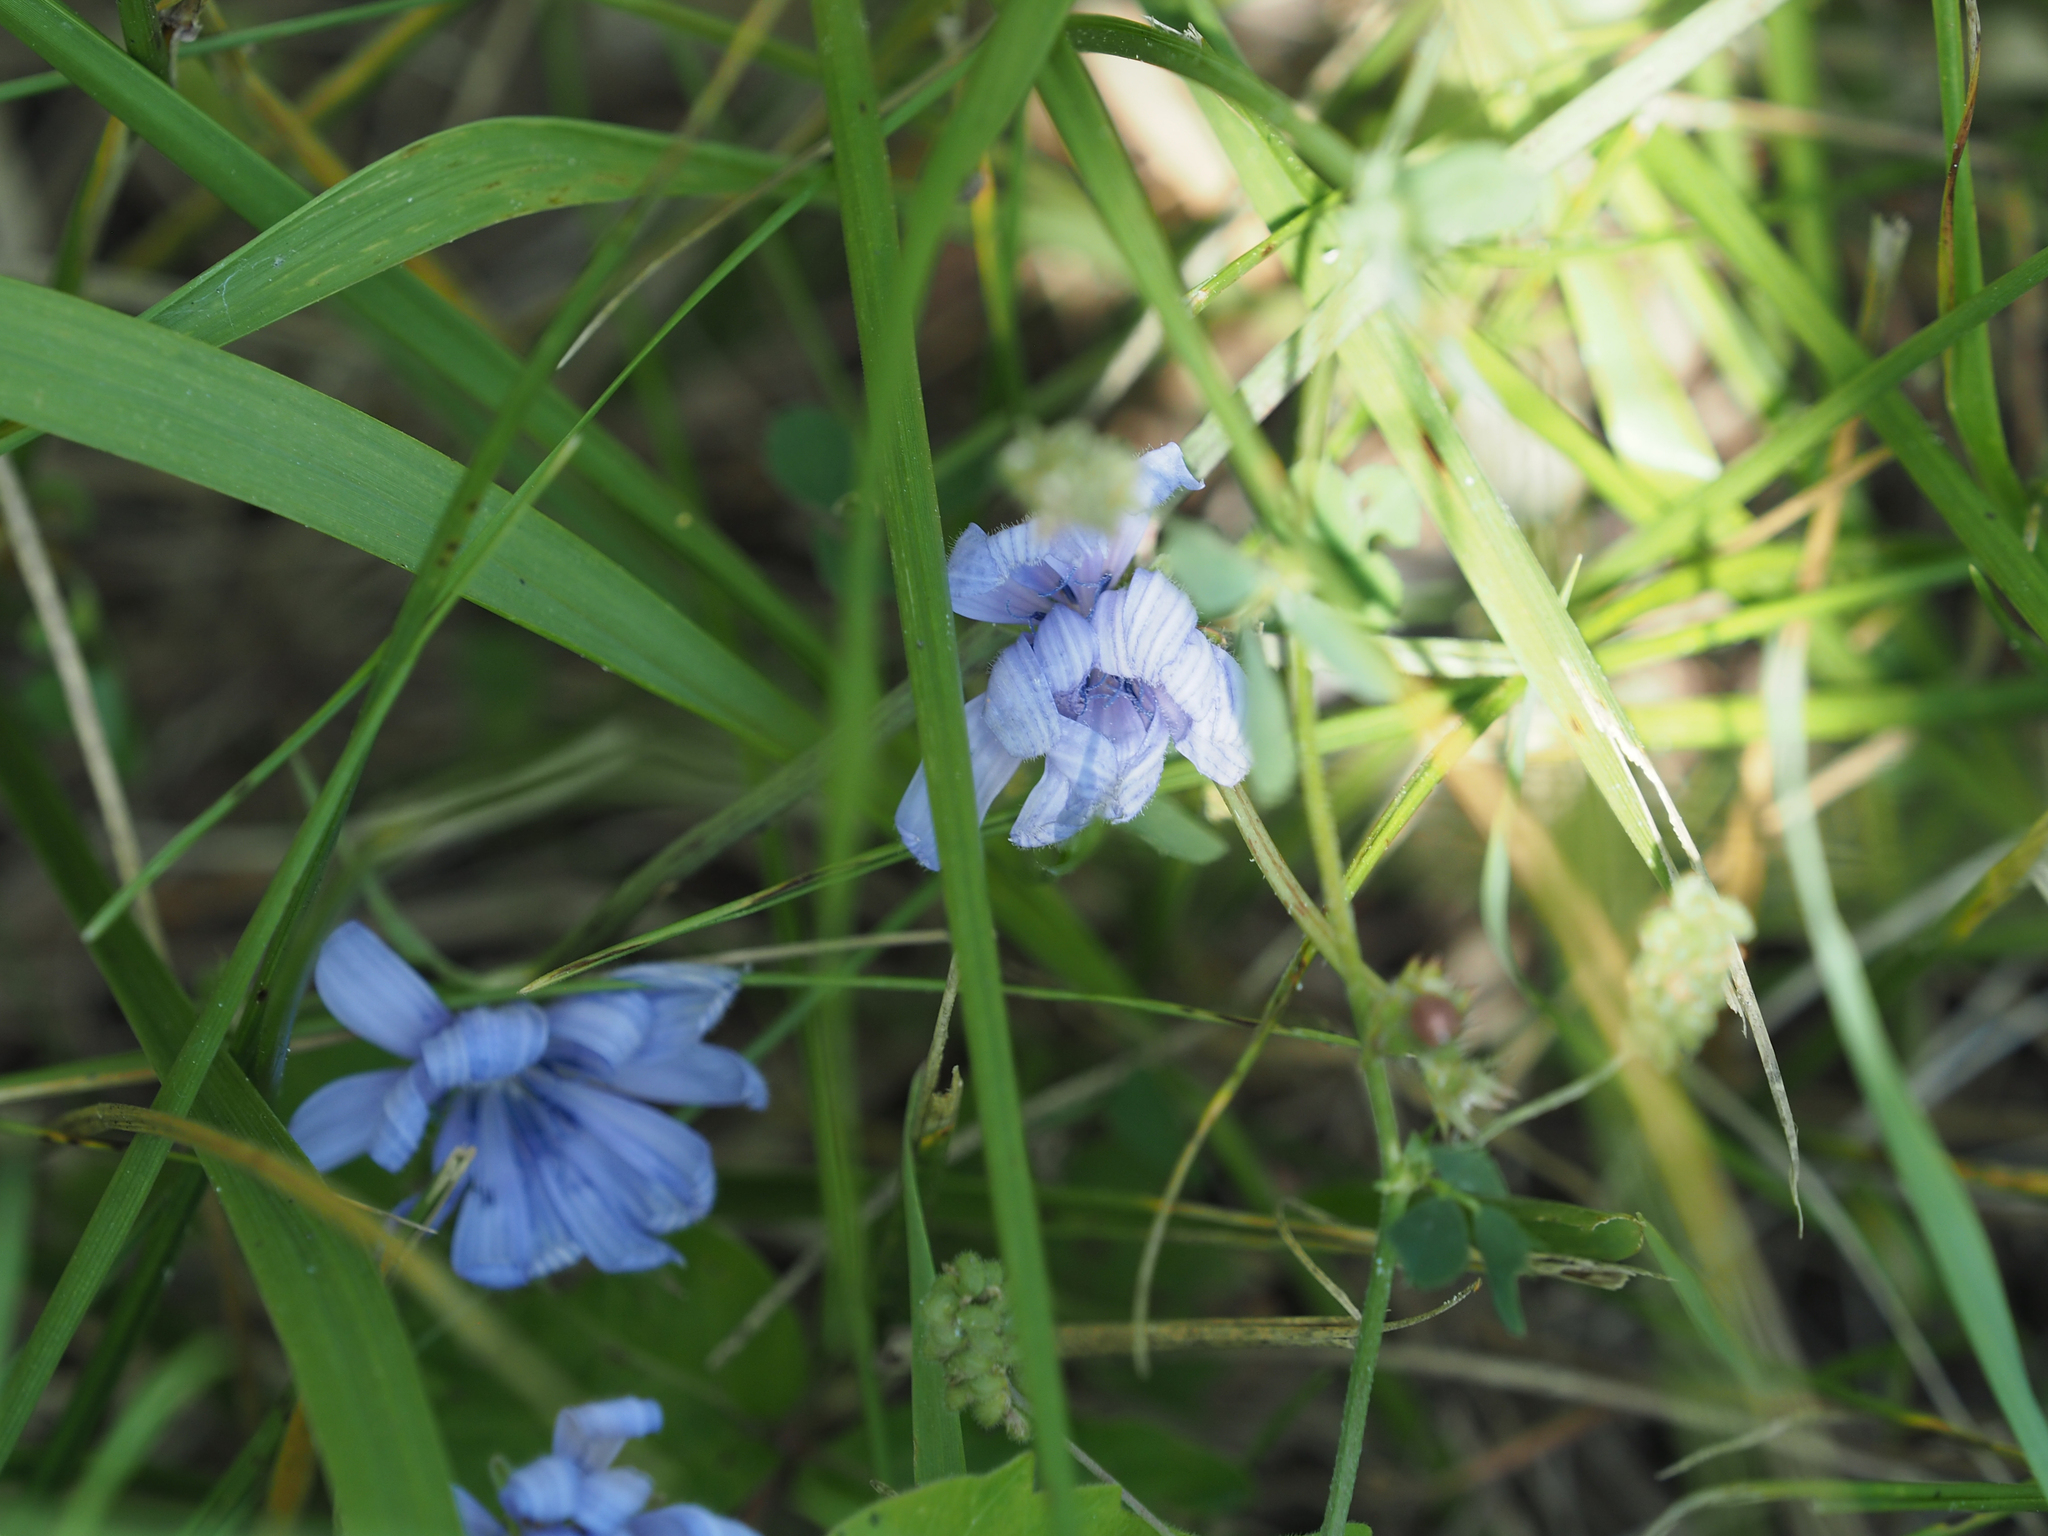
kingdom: Plantae
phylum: Tracheophyta
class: Magnoliopsida
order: Asterales
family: Asteraceae
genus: Cichorium
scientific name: Cichorium intybus
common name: Chicory
